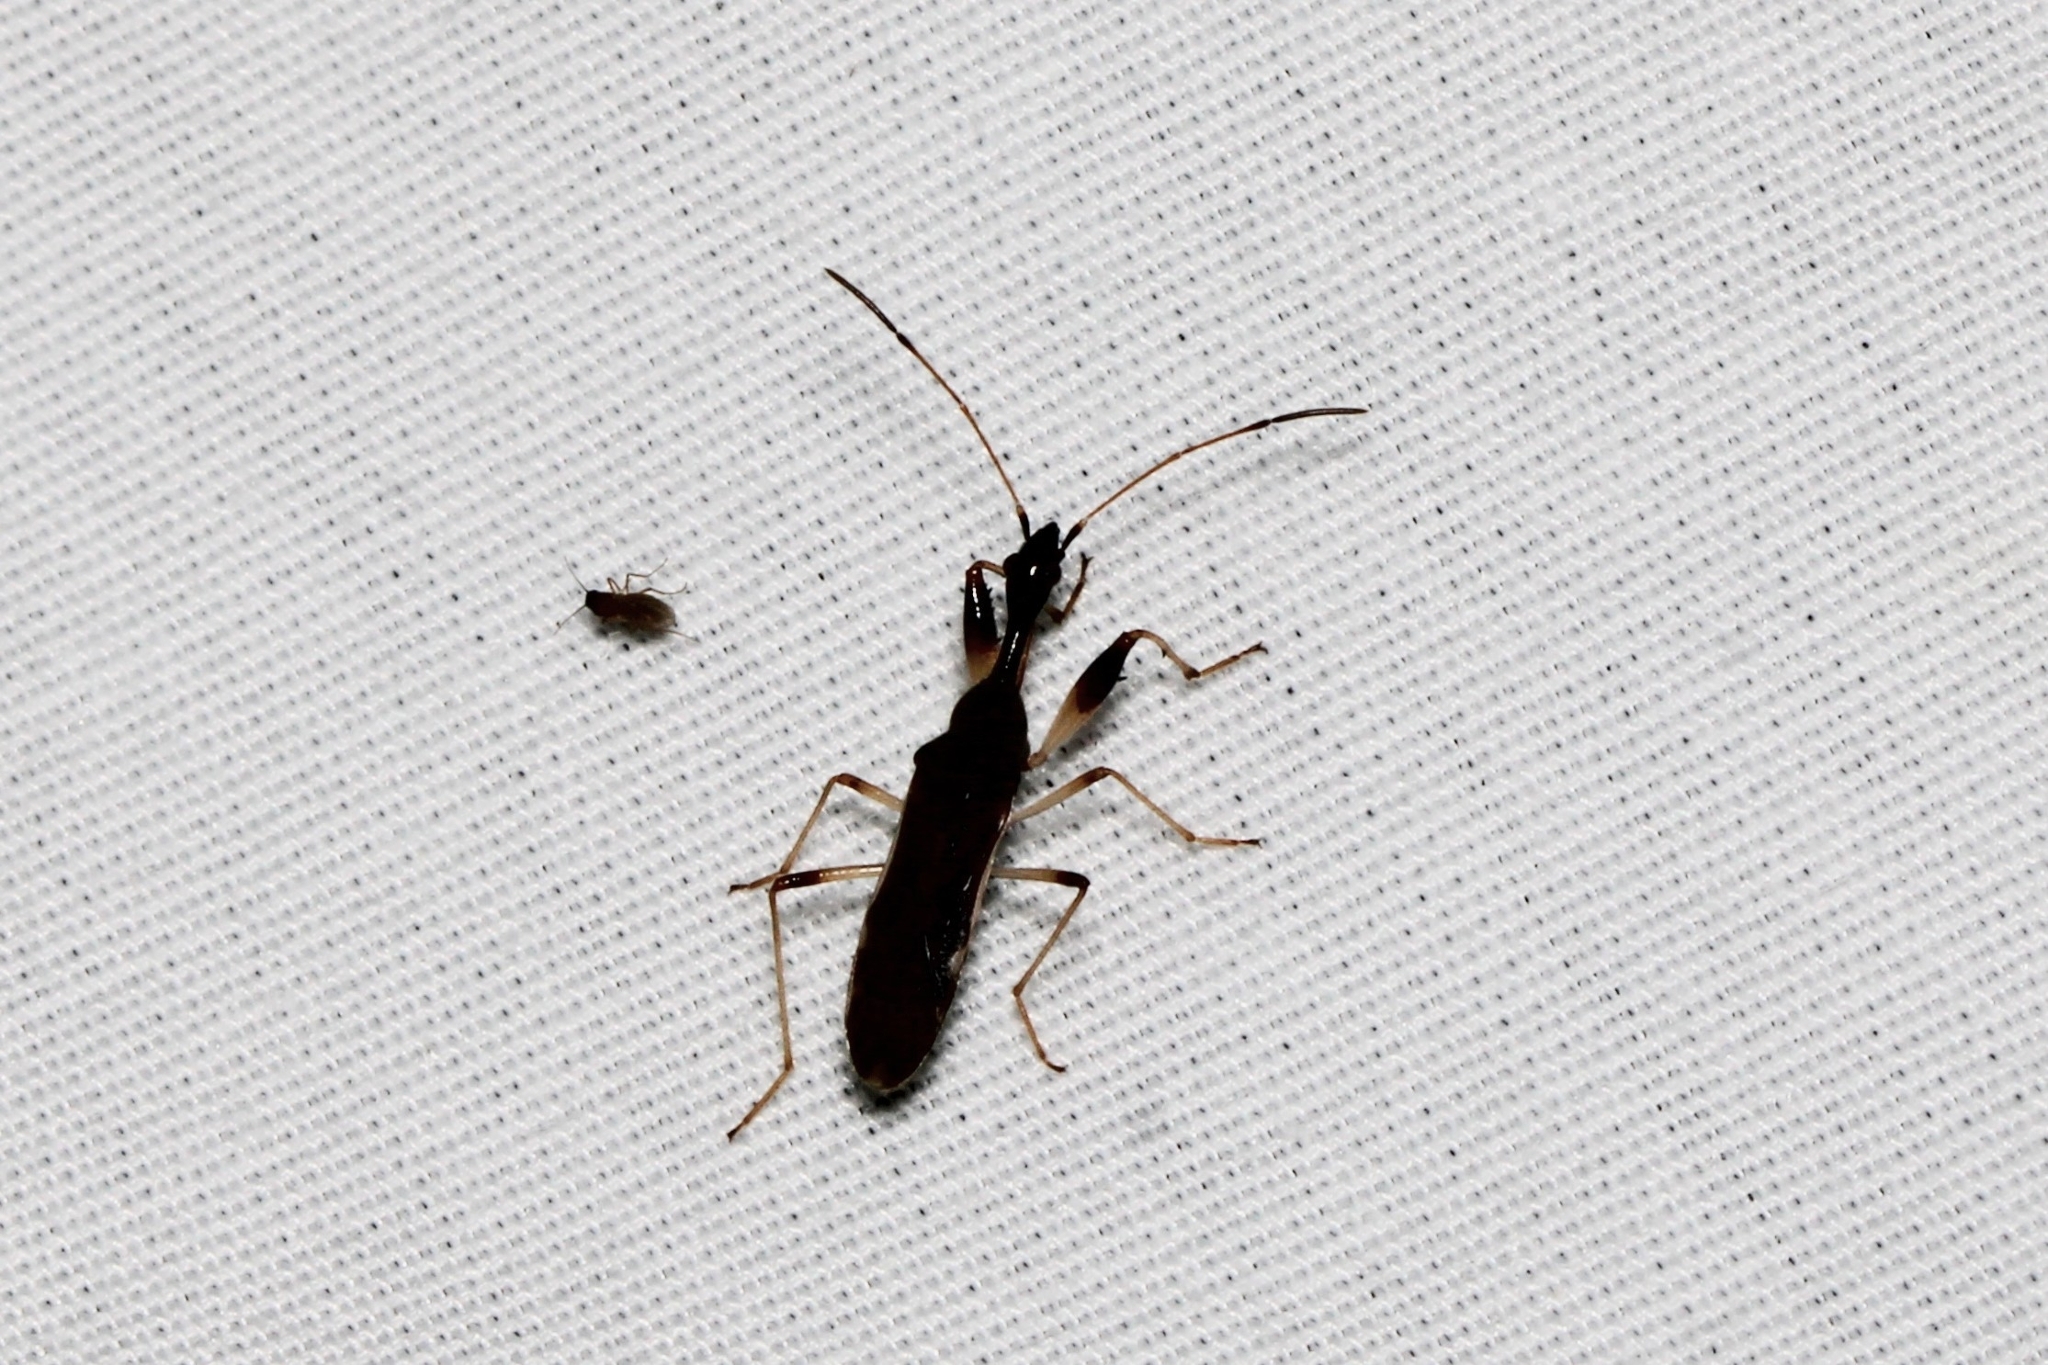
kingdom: Animalia
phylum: Arthropoda
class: Insecta
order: Hemiptera
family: Rhyparochromidae
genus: Myodocha
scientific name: Myodocha serripes
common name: Long-necked seed bug
